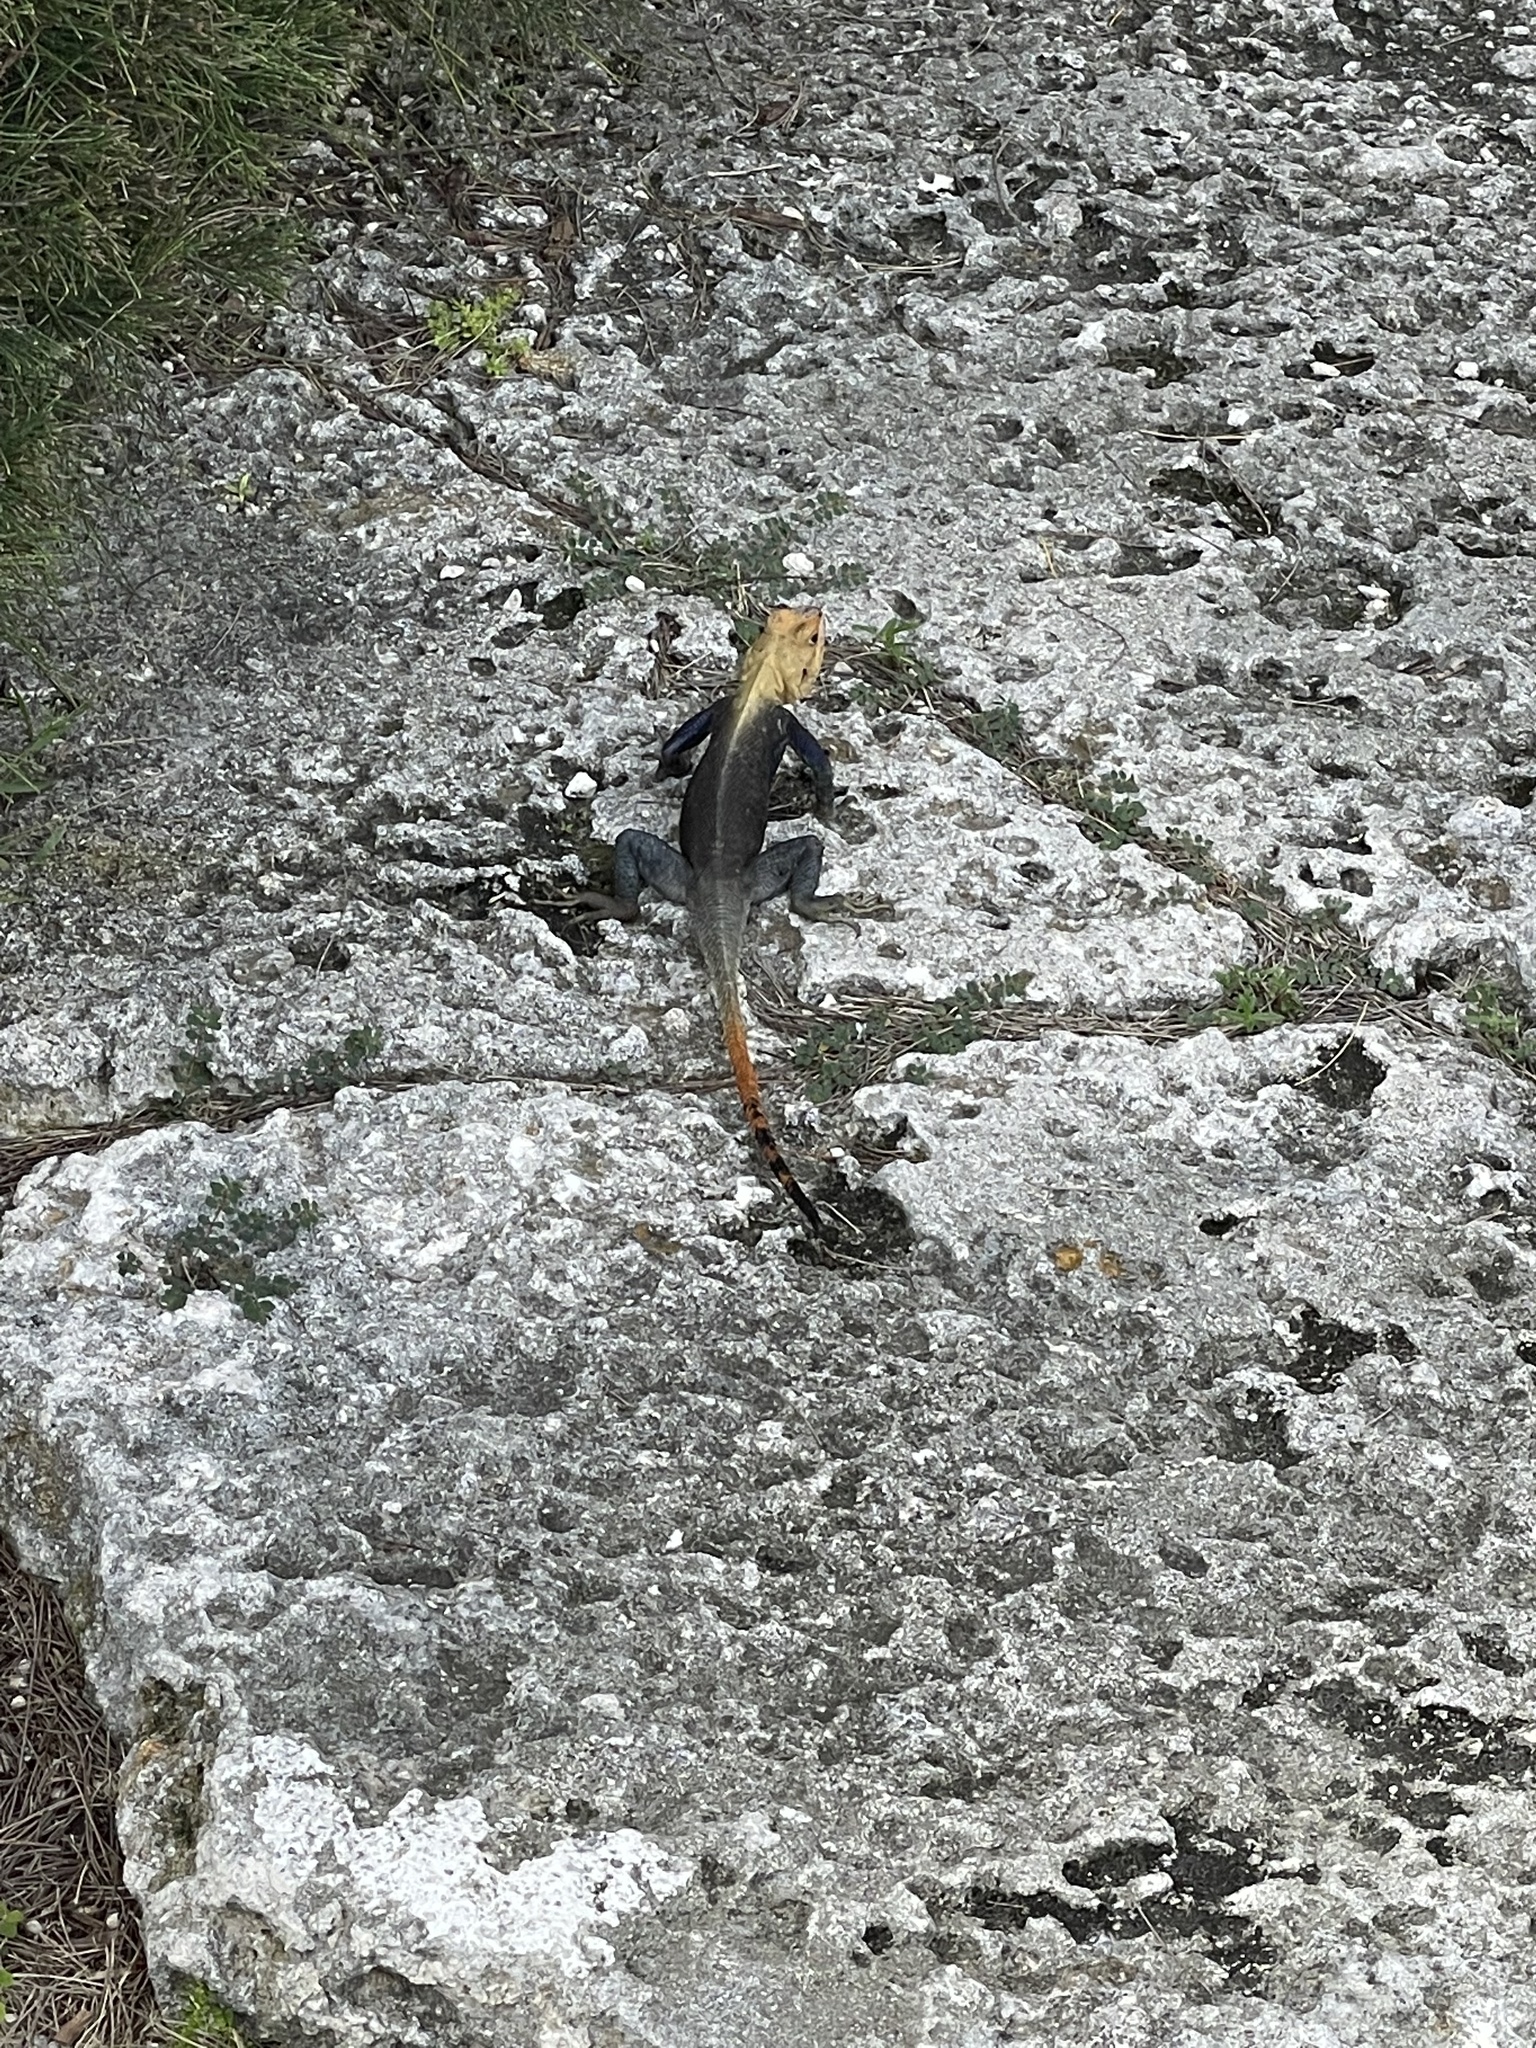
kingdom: Animalia
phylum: Chordata
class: Squamata
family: Agamidae
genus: Agama
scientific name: Agama picticauda
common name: Red-headed agama
